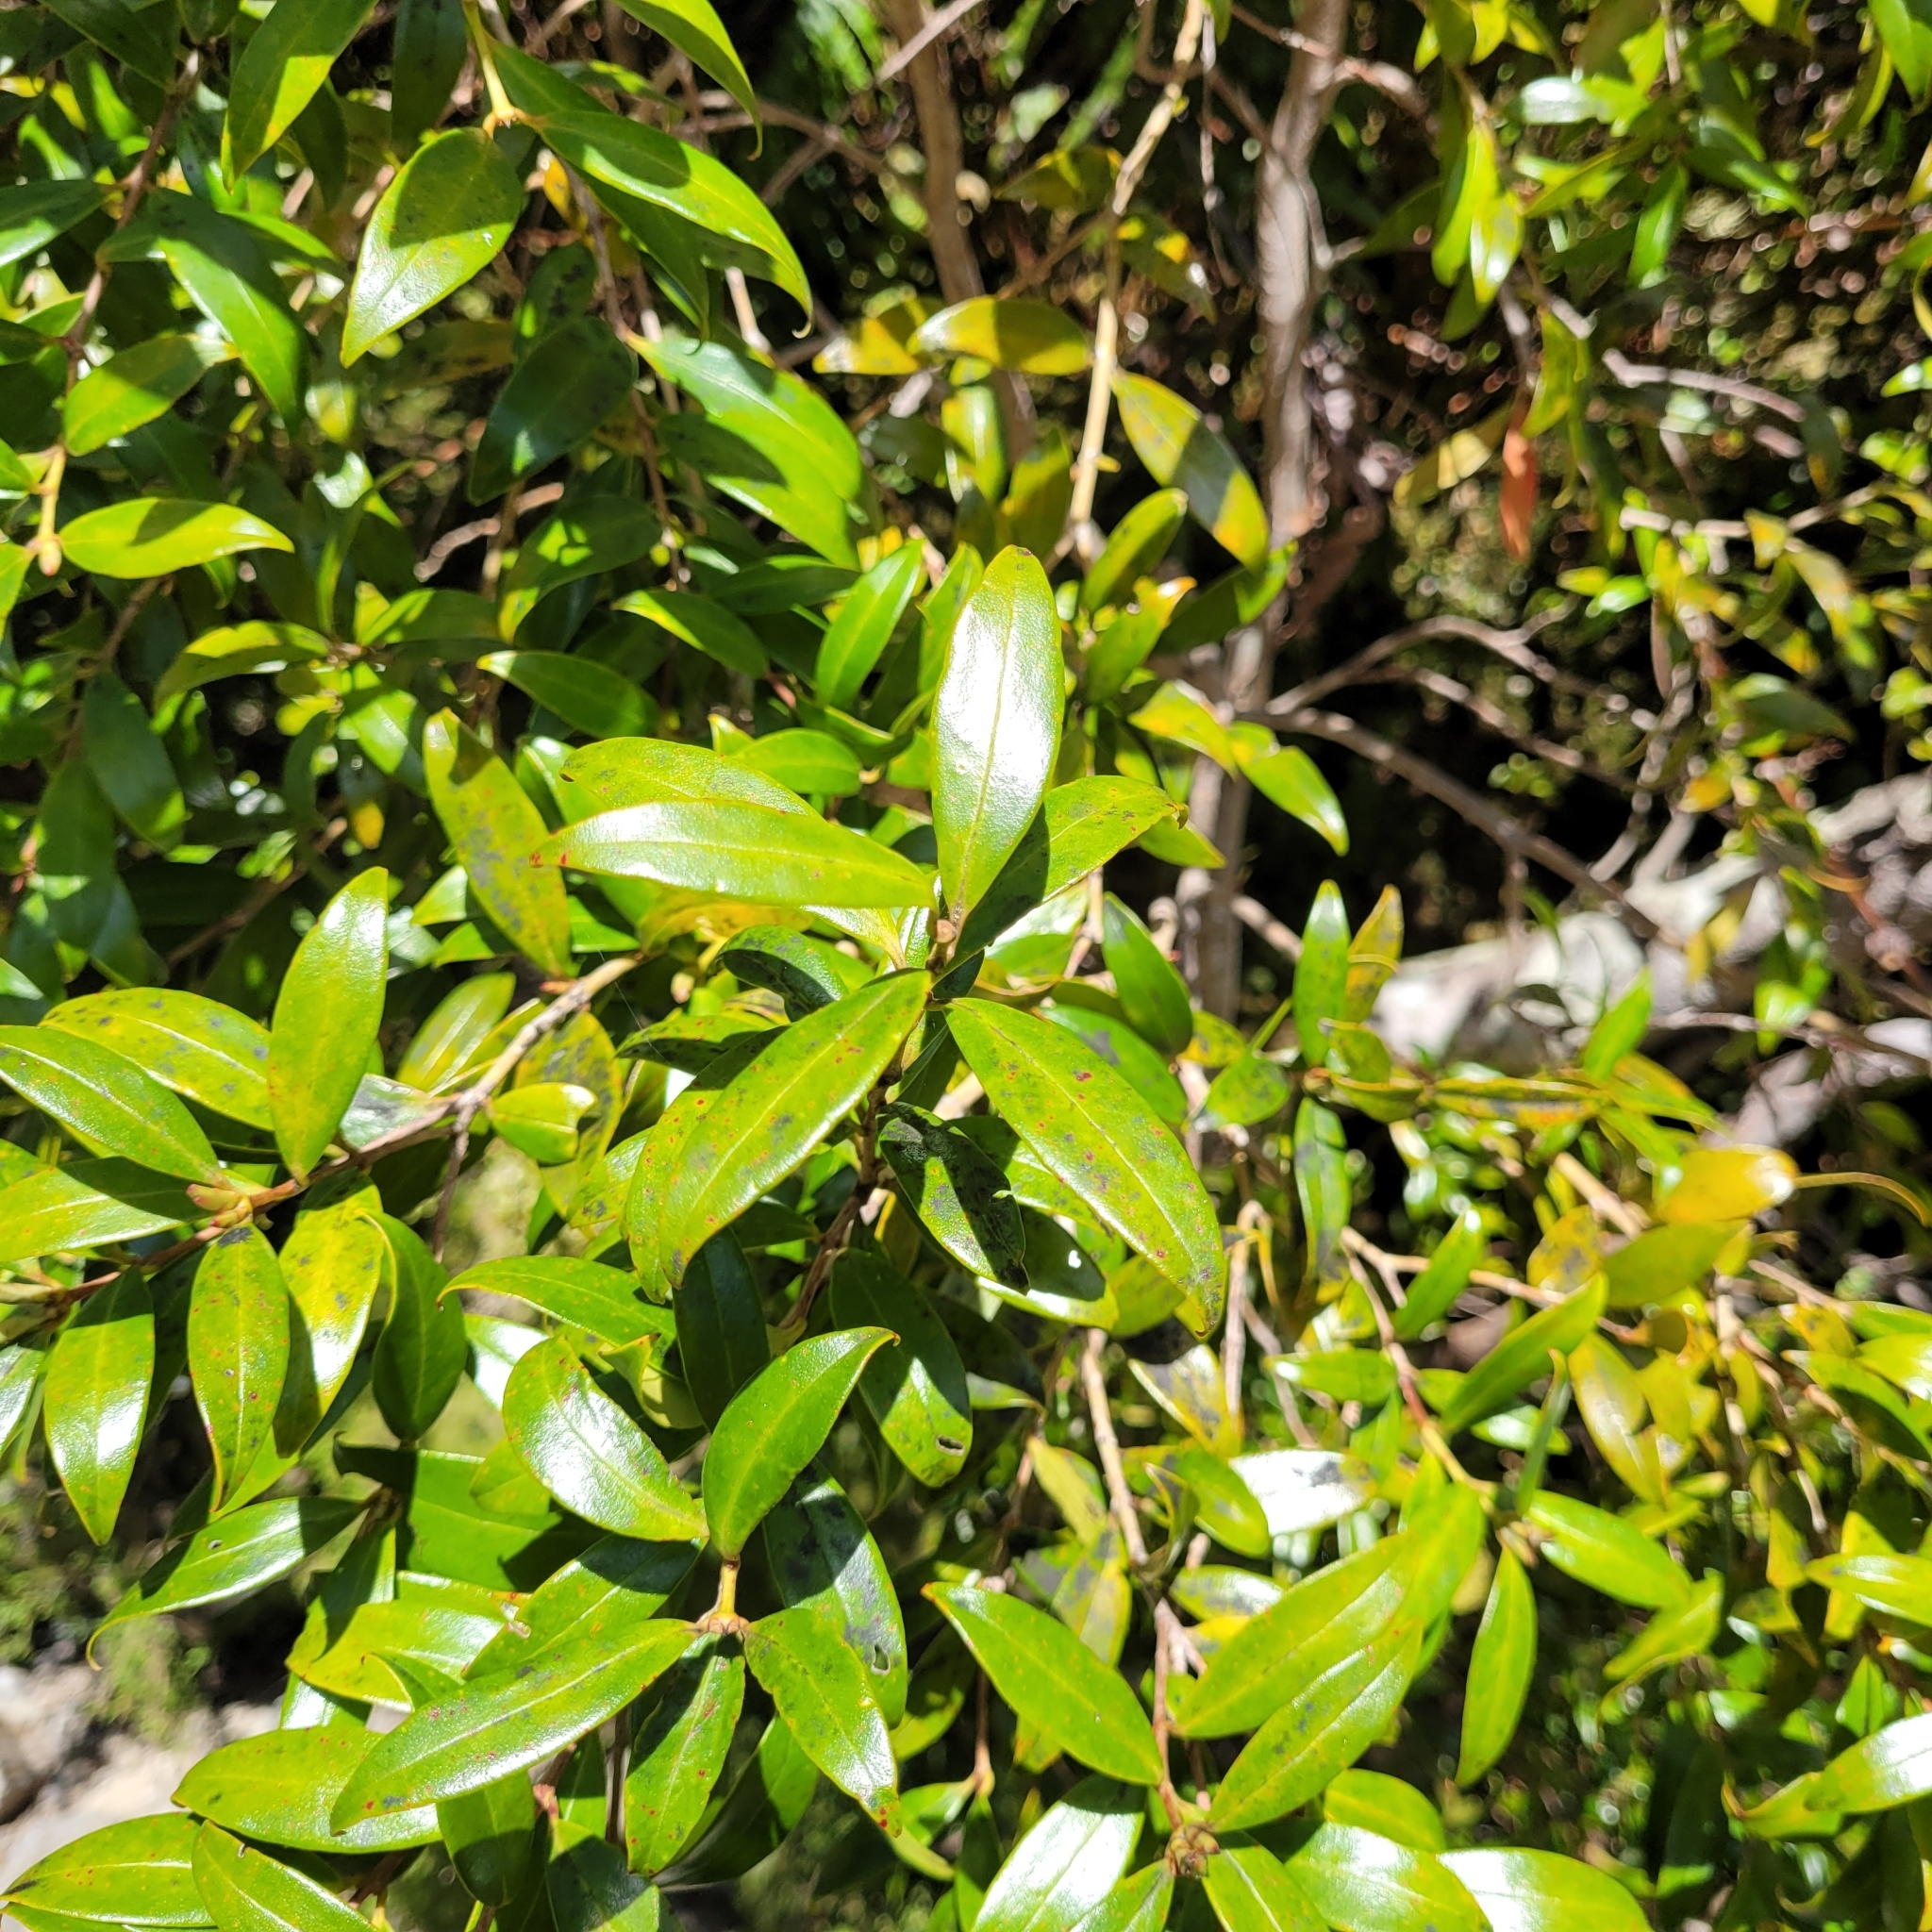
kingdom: Plantae
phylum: Tracheophyta
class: Magnoliopsida
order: Myrtales
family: Myrtaceae
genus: Metrosideros
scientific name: Metrosideros umbellata
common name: Southern rata
